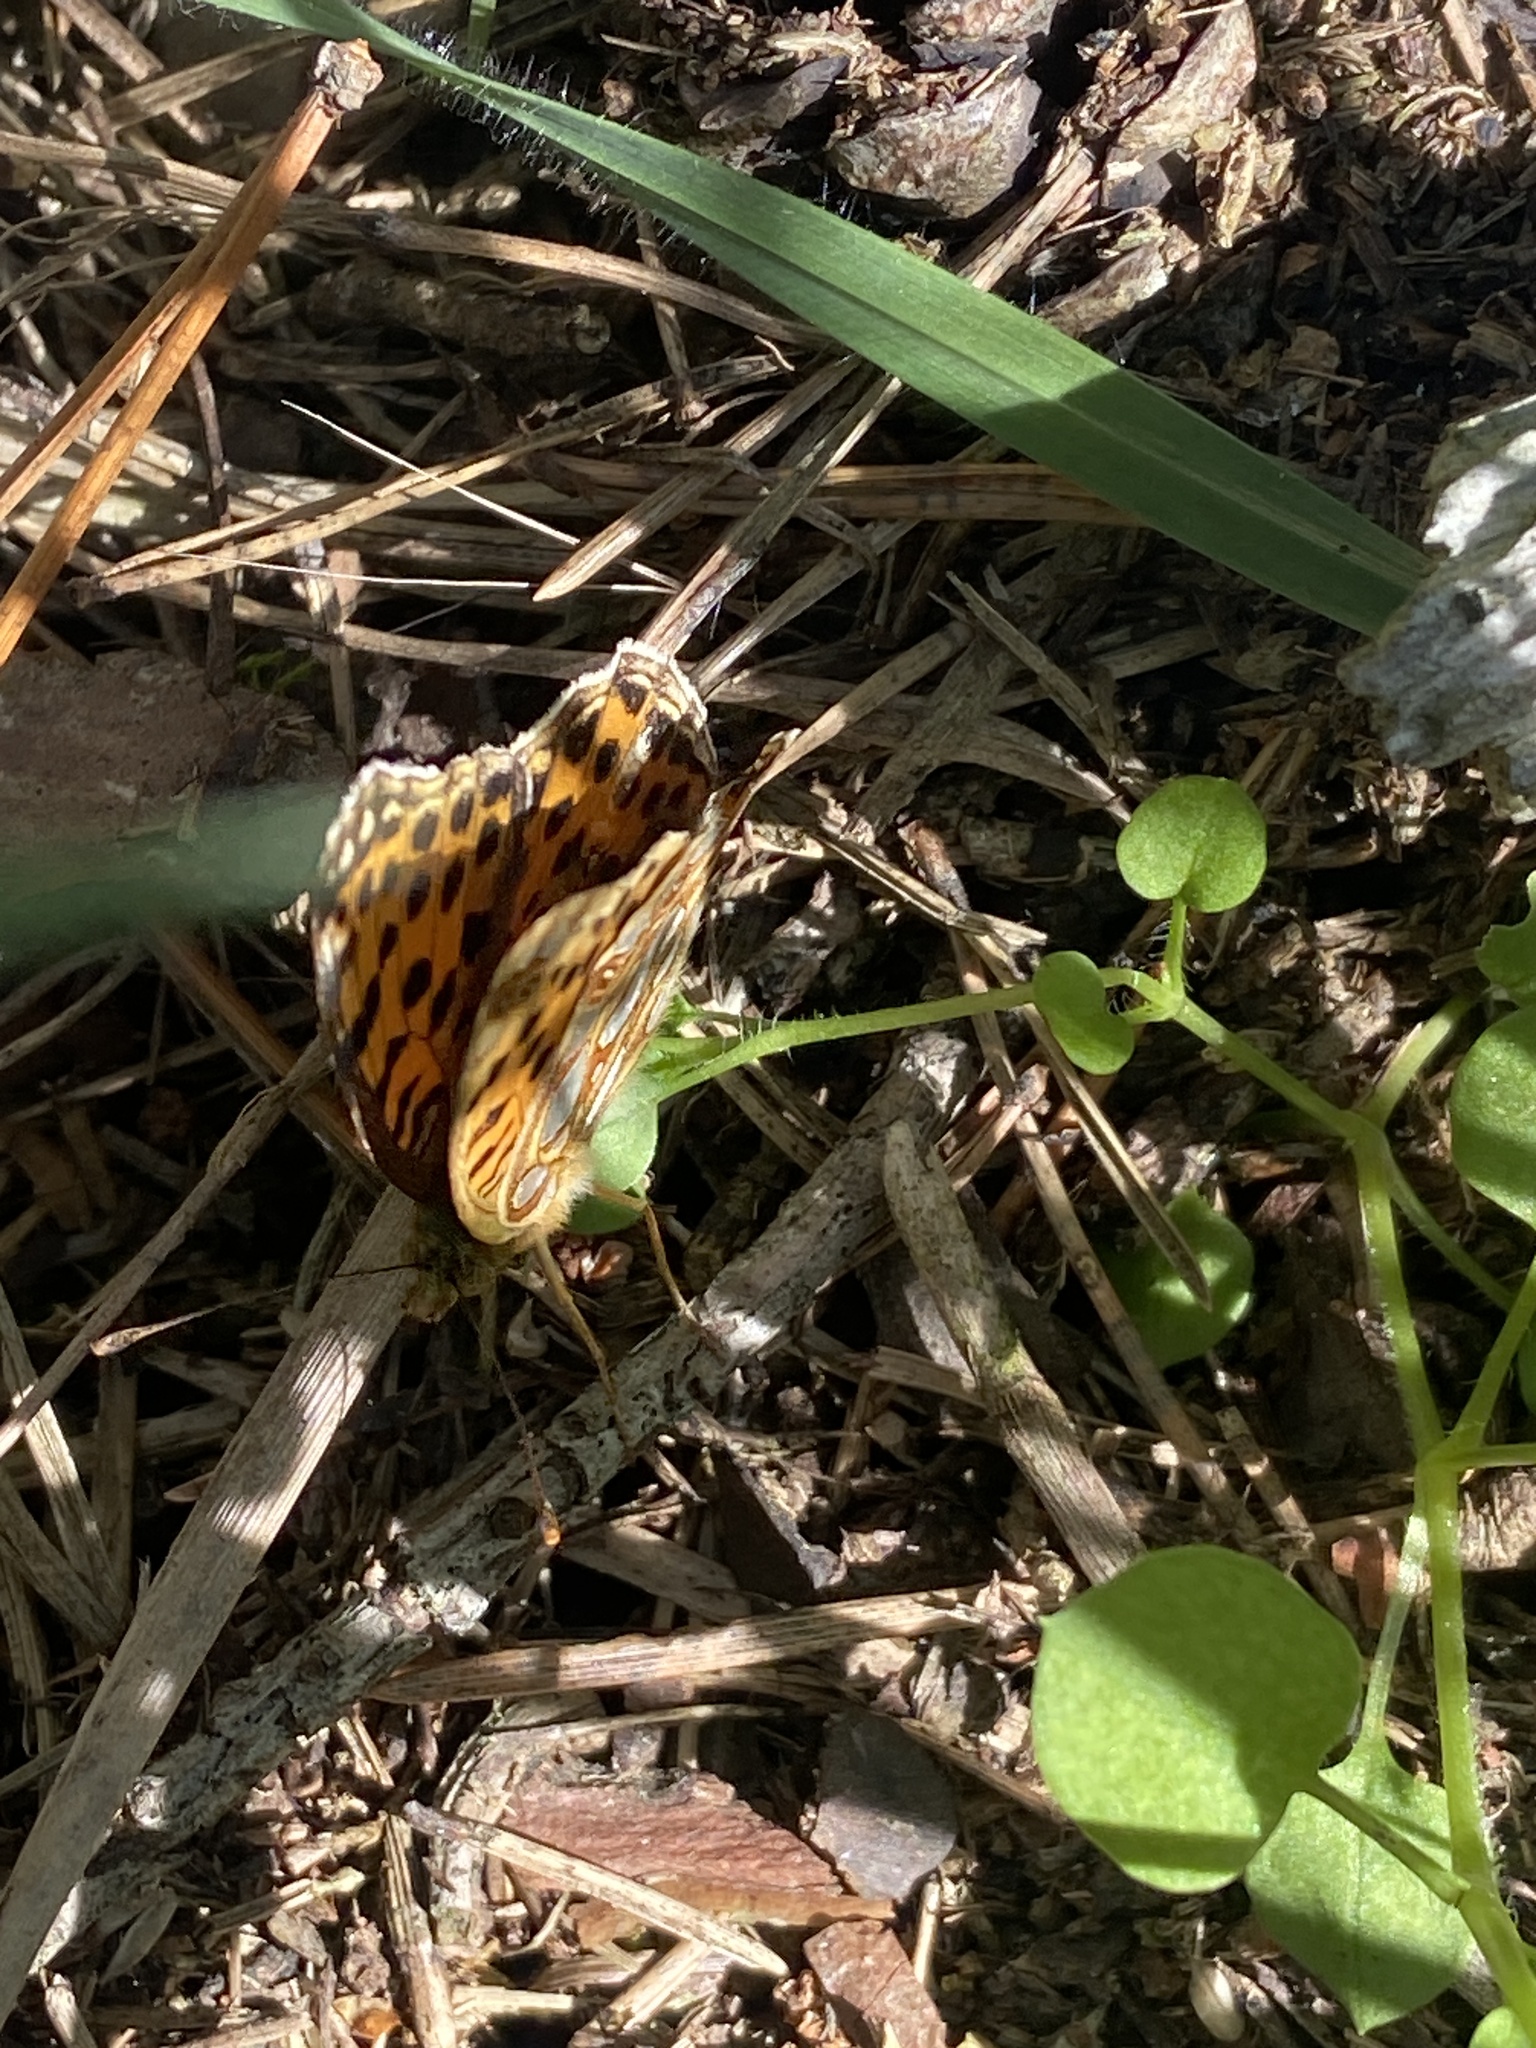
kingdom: Animalia
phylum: Arthropoda
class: Insecta
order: Lepidoptera
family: Nymphalidae
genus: Issoria
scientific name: Issoria lathonia
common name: Queen of spain fritillary
